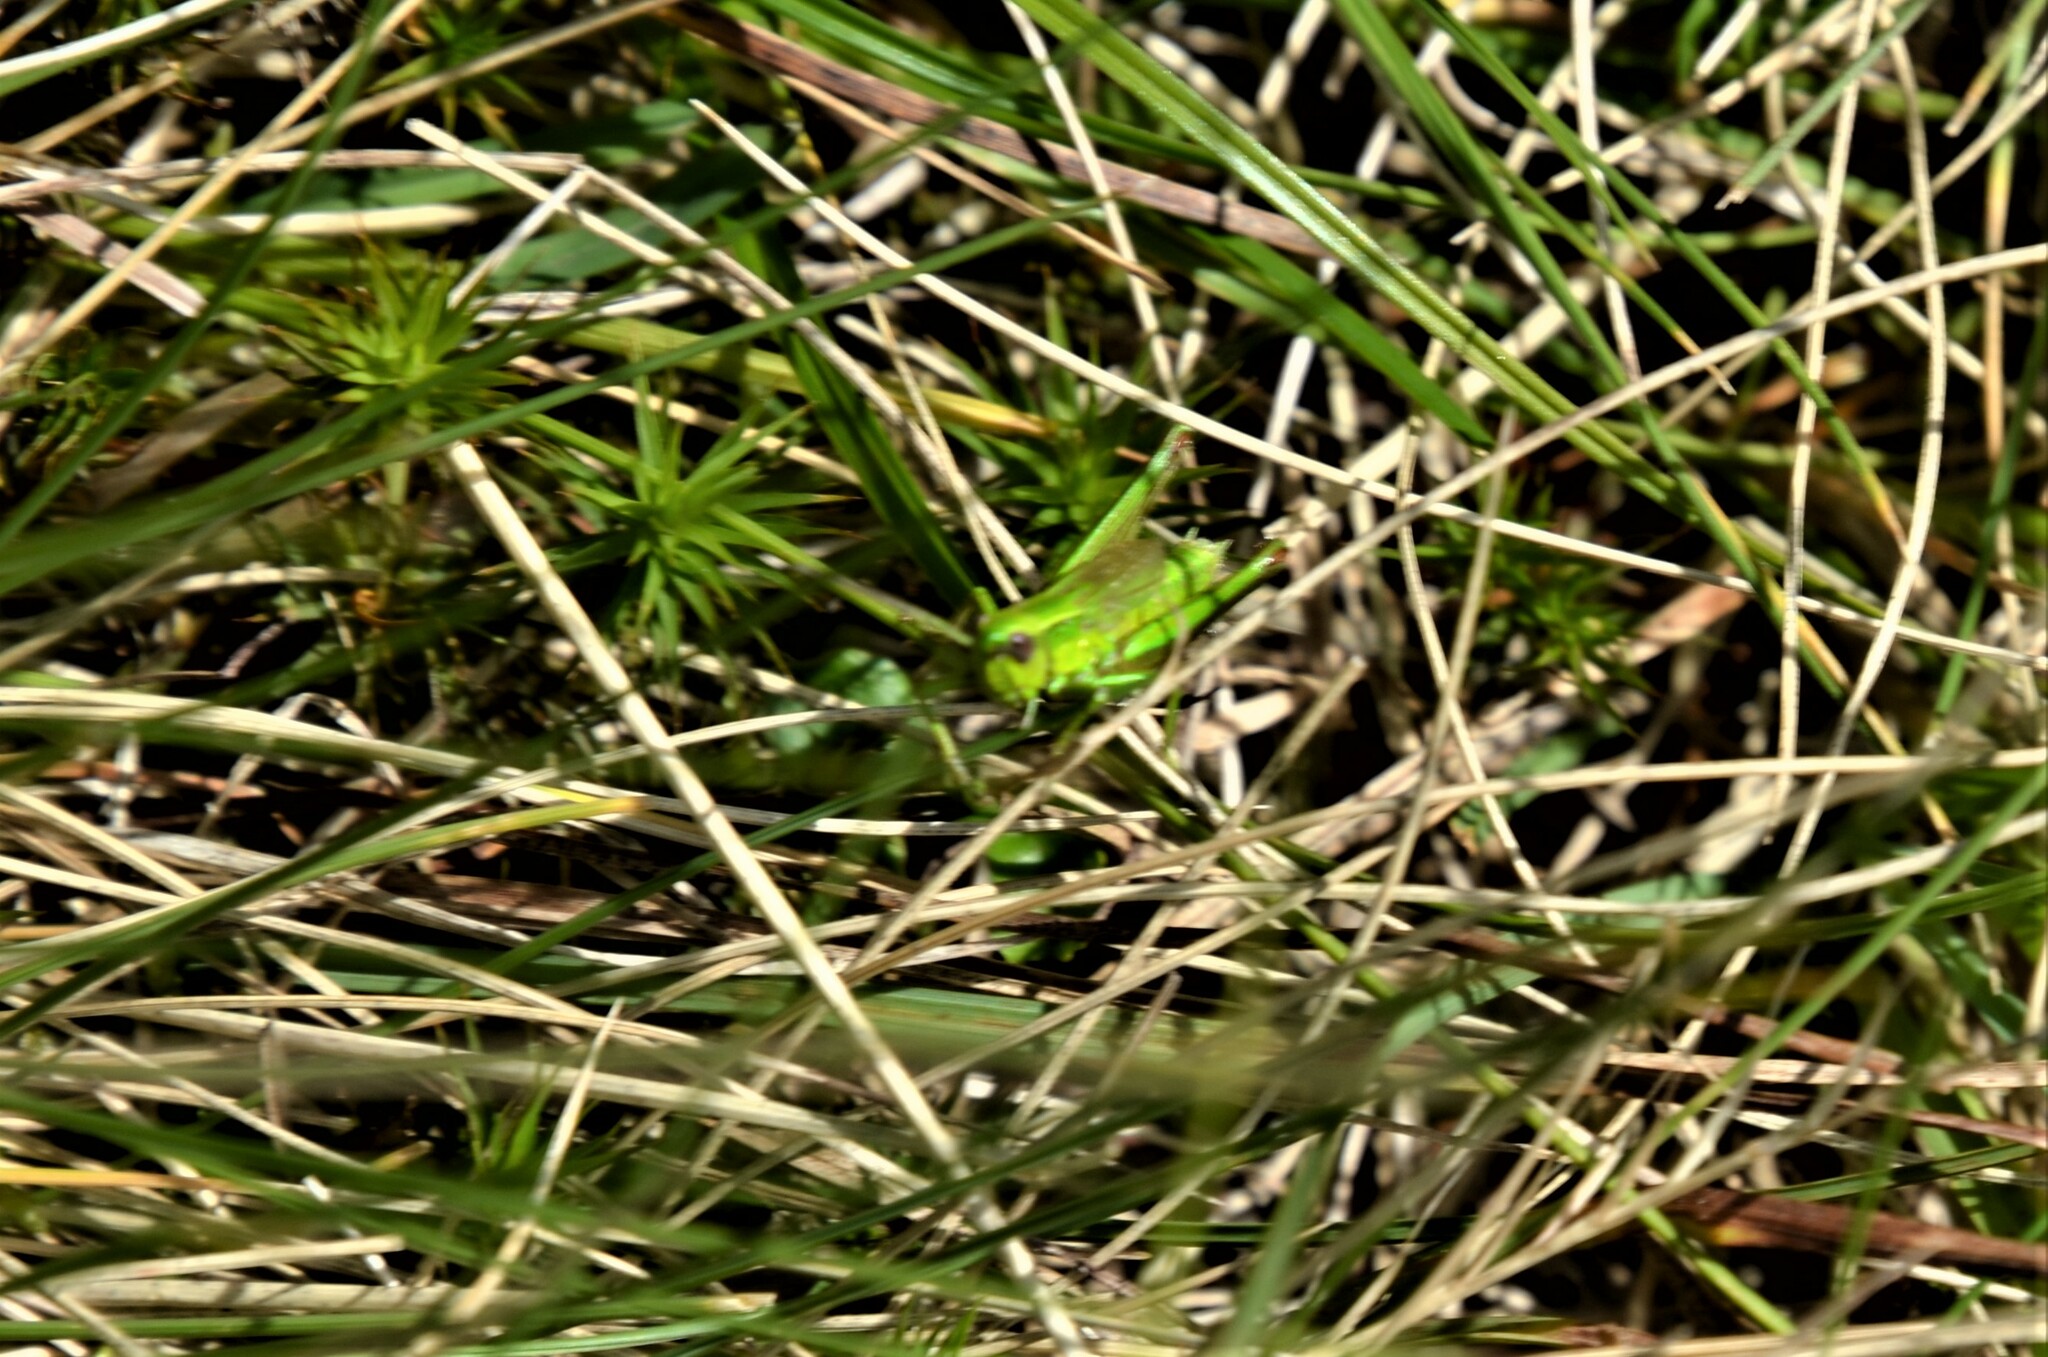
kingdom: Animalia
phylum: Arthropoda
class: Insecta
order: Orthoptera
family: Acrididae
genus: Euthystira
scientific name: Euthystira brachyptera
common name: Small gold grasshopper
